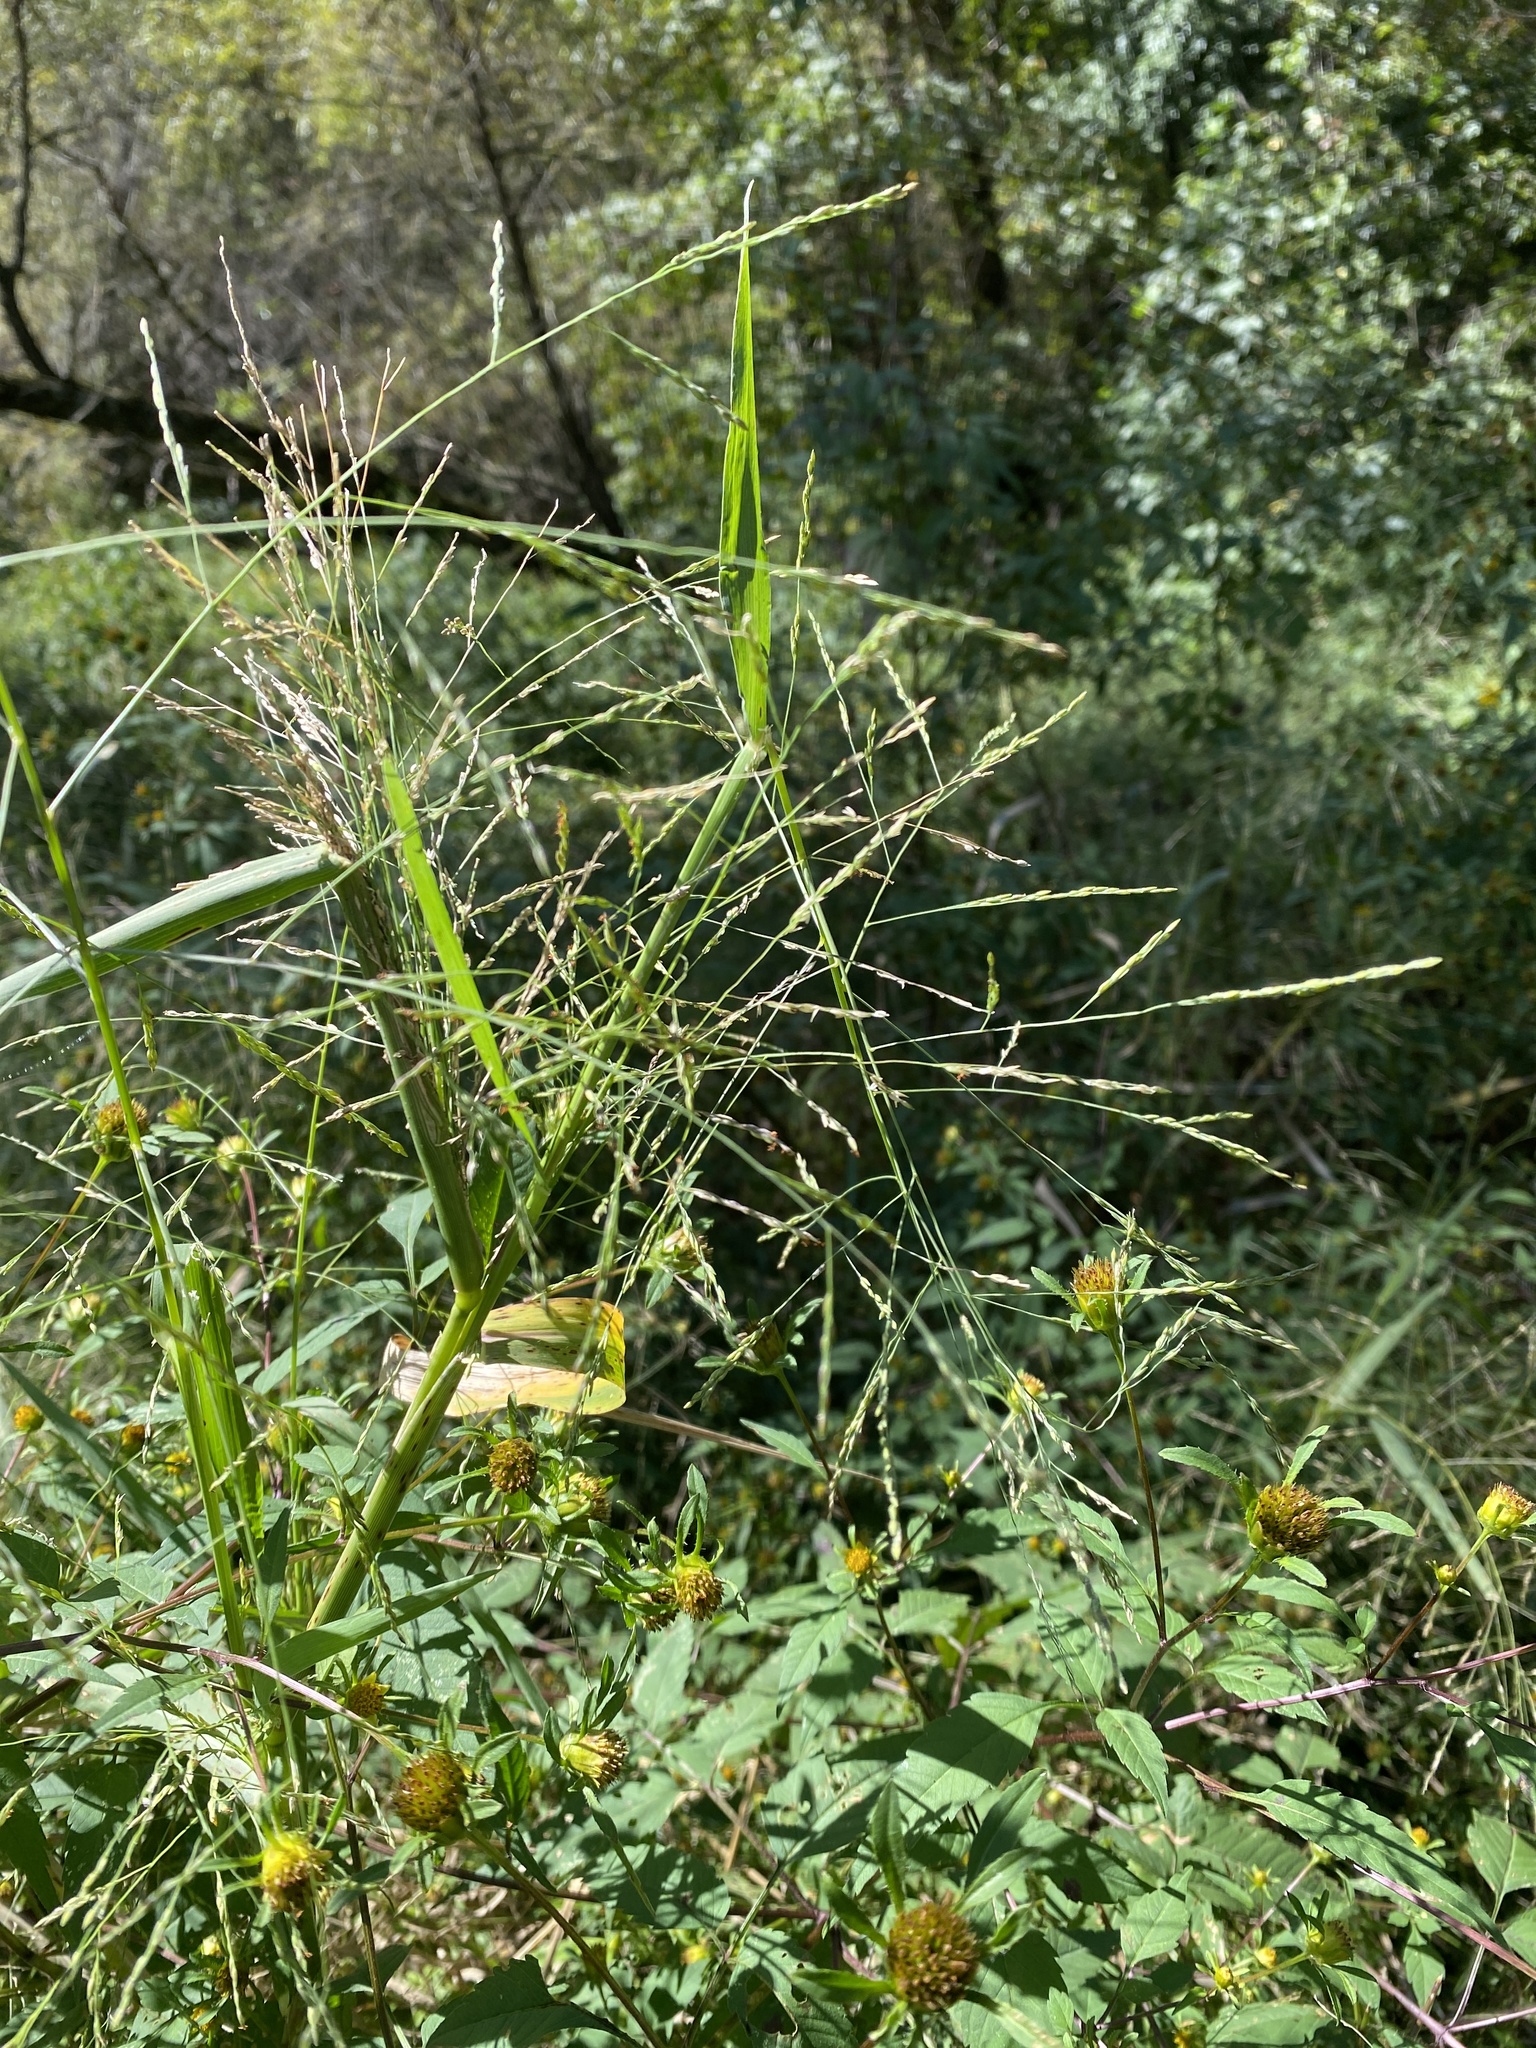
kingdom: Plantae
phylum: Tracheophyta
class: Liliopsida
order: Poales
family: Poaceae
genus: Panicum
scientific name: Panicum dichotomiflorum
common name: Autumn millet
